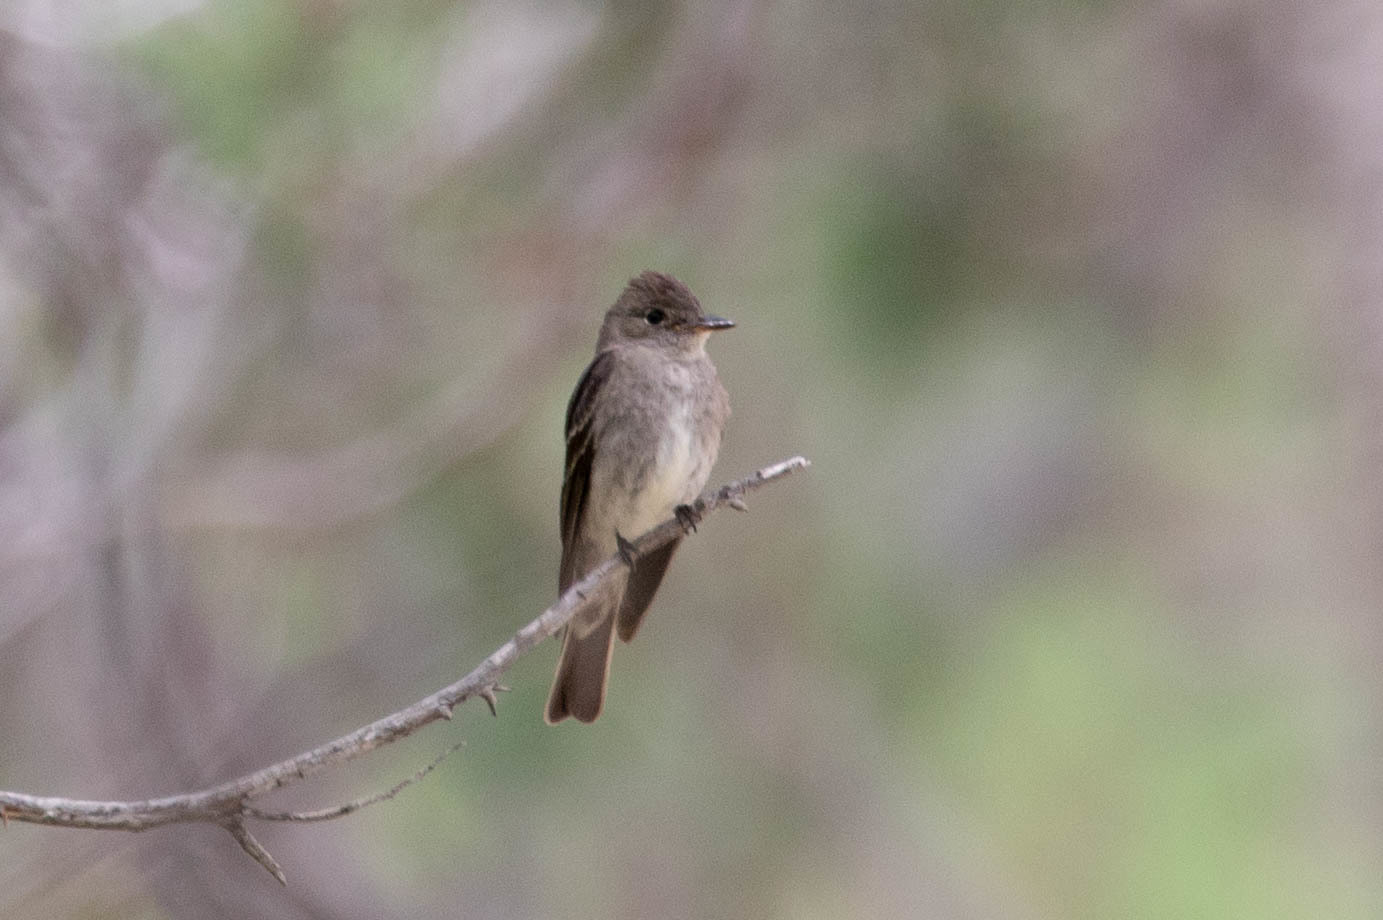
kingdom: Animalia
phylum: Chordata
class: Aves
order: Passeriformes
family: Tyrannidae
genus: Contopus
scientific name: Contopus sordidulus
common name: Western wood-pewee
